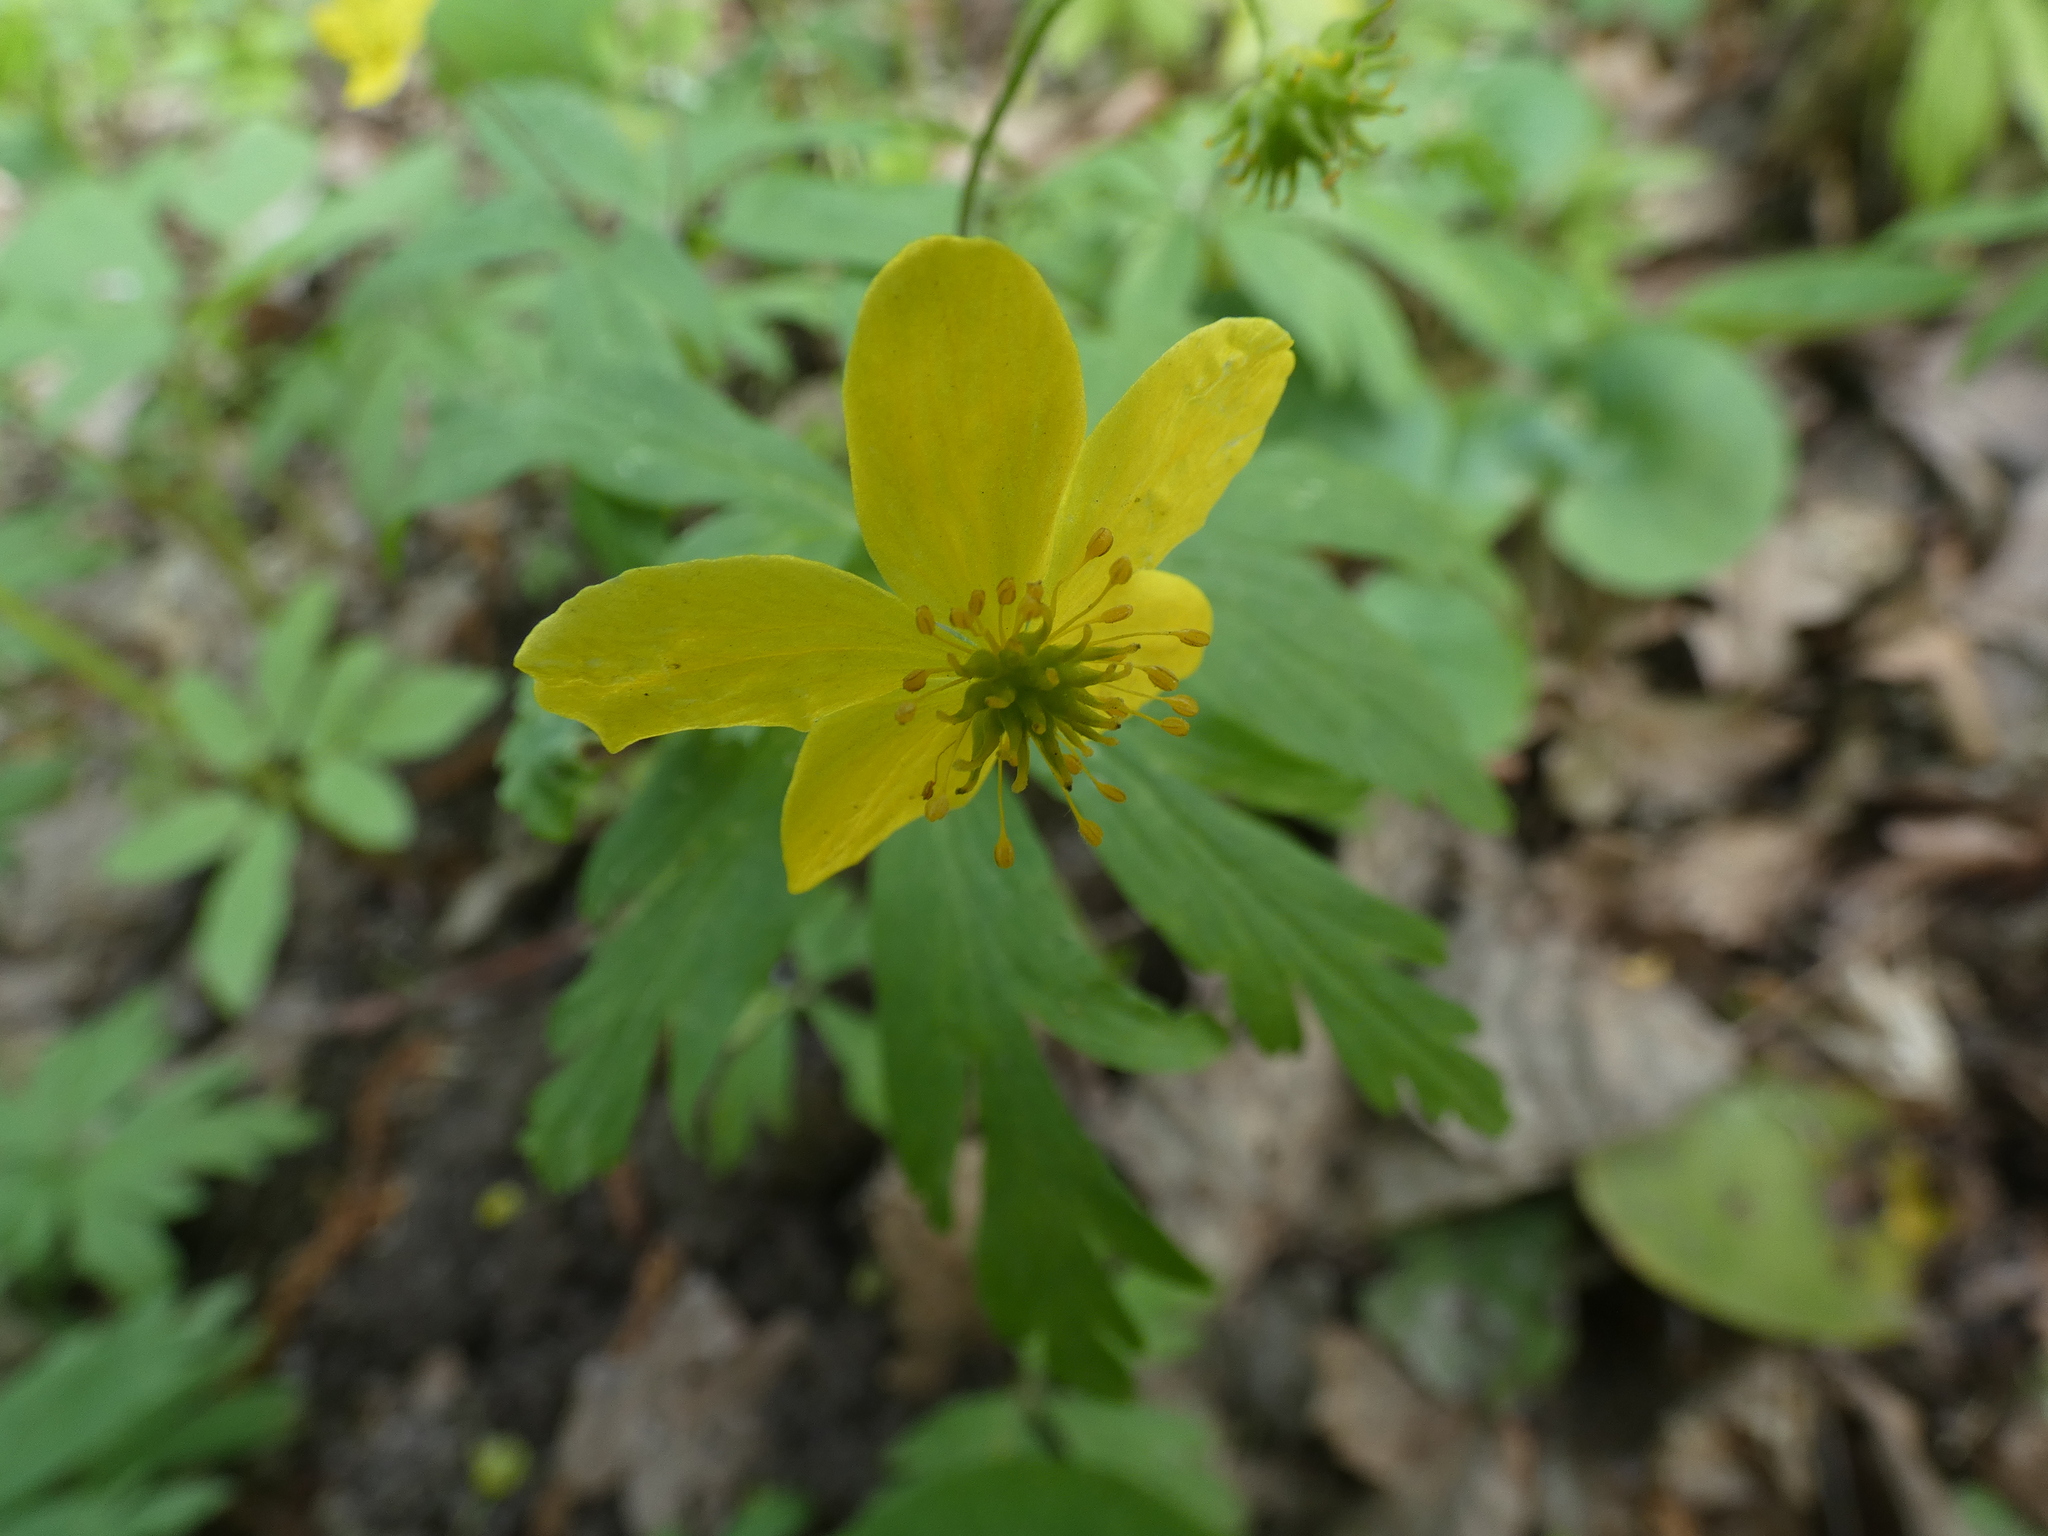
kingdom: Plantae
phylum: Tracheophyta
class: Magnoliopsida
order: Ranunculales
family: Ranunculaceae
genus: Anemone
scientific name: Anemone ranunculoides
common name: Yellow anemone
